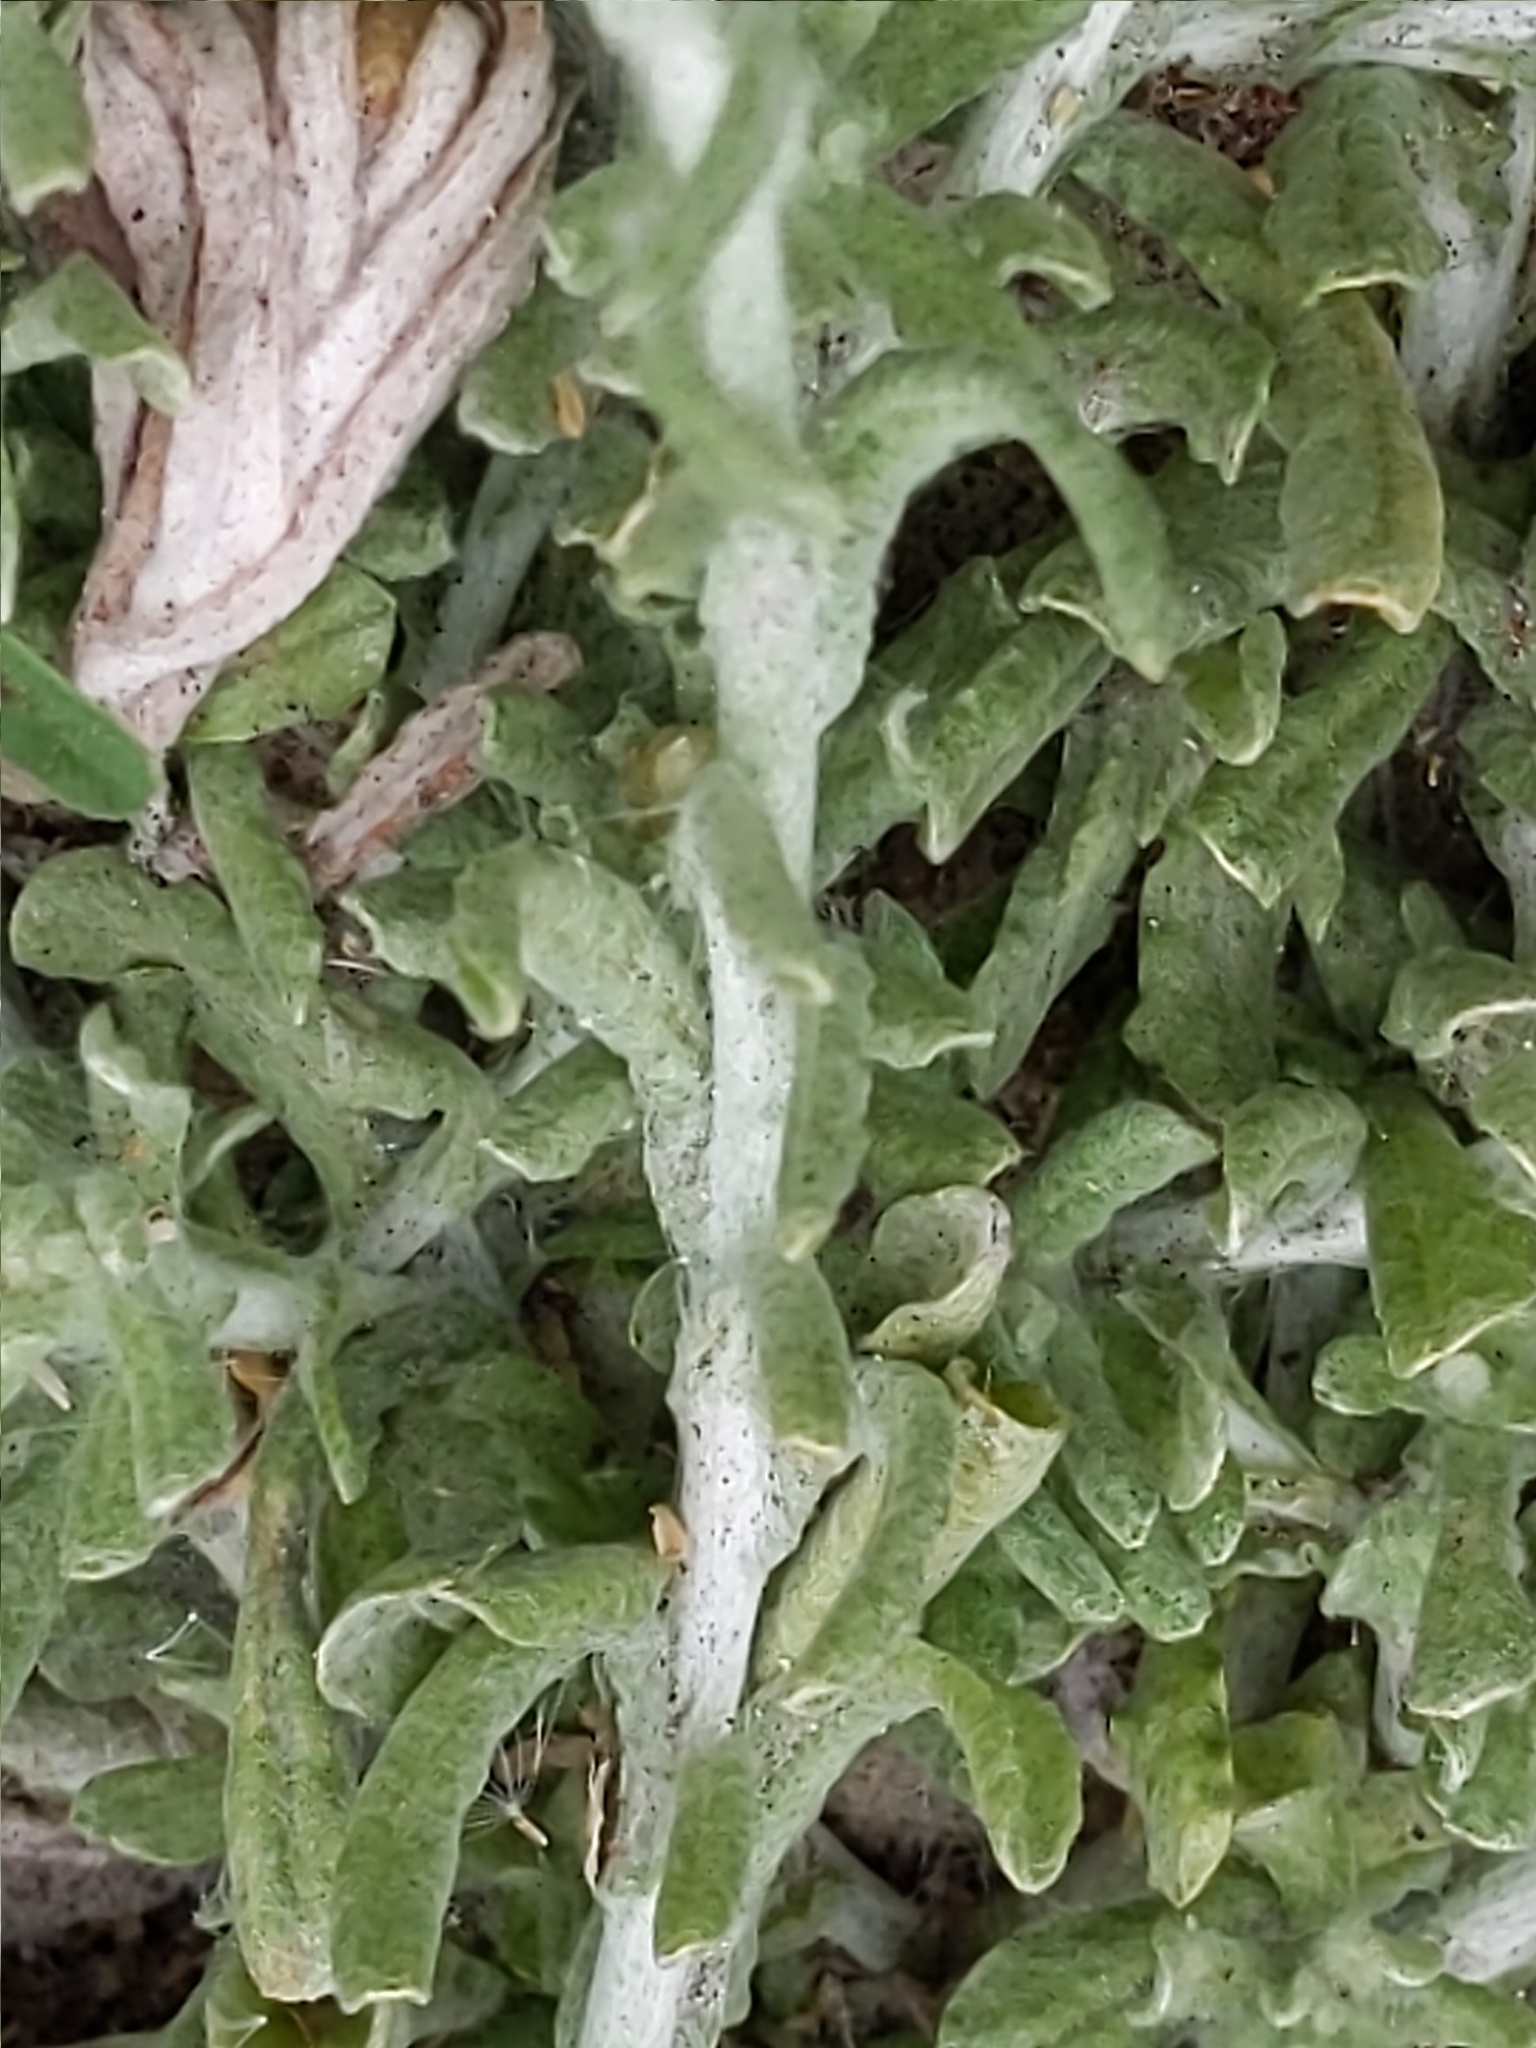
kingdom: Plantae
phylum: Tracheophyta
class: Magnoliopsida
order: Asterales
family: Asteraceae
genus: Helichrysum
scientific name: Helichrysum luteoalbum
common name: Daisy
